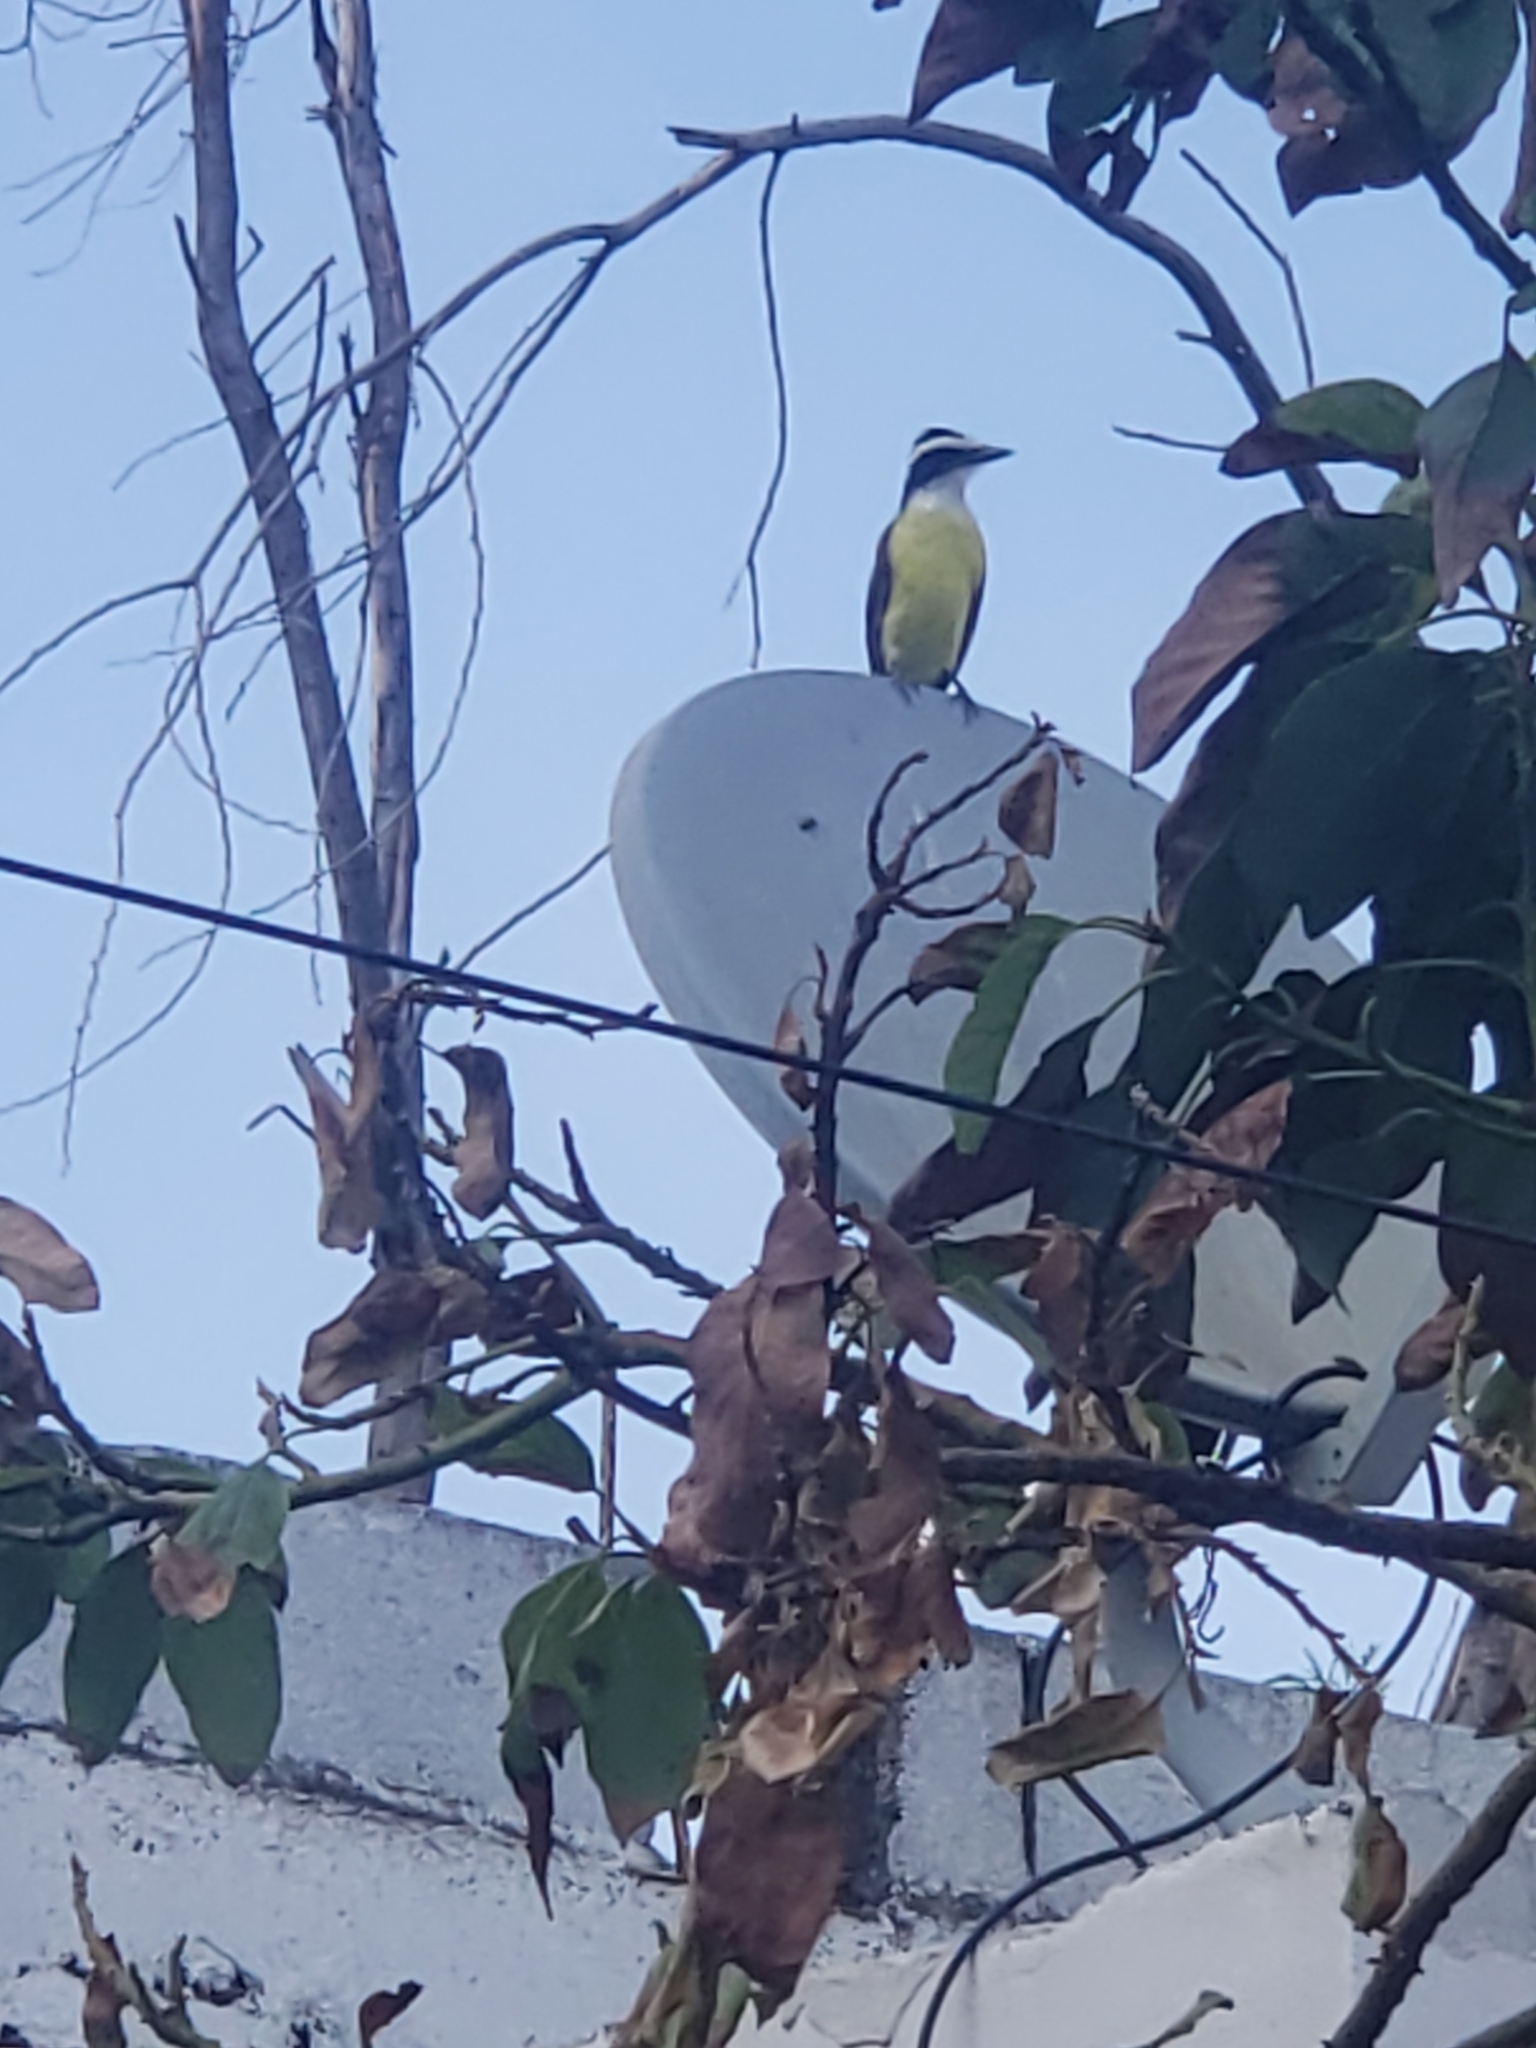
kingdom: Animalia
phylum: Chordata
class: Aves
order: Passeriformes
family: Tyrannidae
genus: Pitangus
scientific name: Pitangus sulphuratus
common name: Great kiskadee
